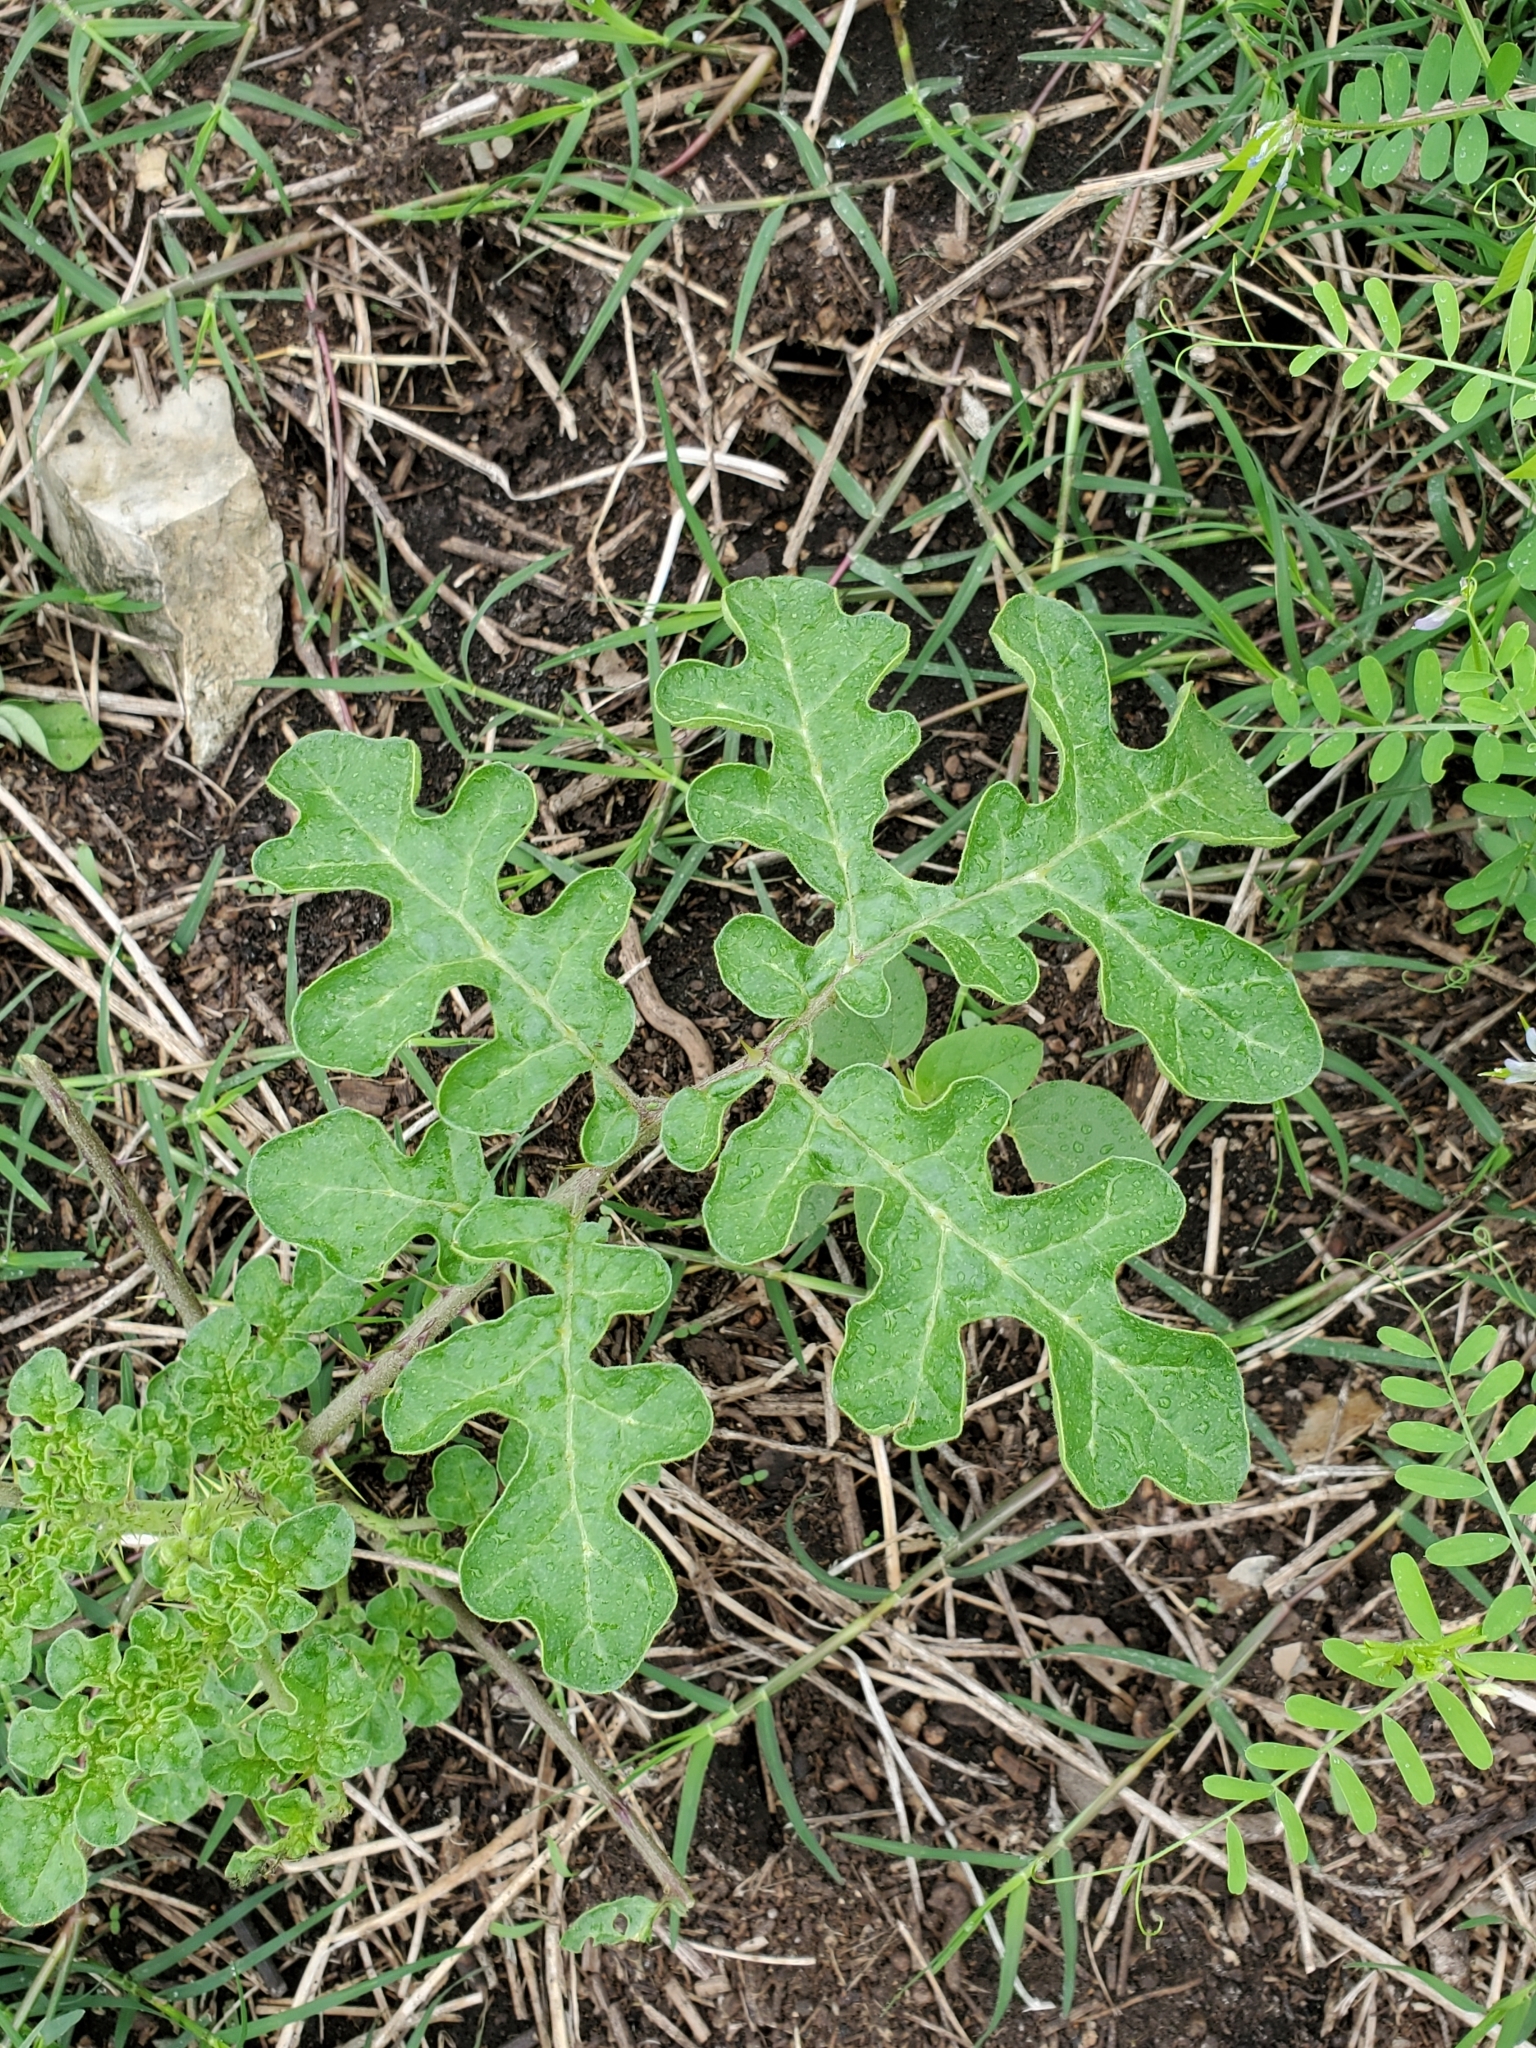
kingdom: Plantae
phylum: Tracheophyta
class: Magnoliopsida
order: Solanales
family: Solanaceae
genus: Solanum
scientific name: Solanum angustifolium
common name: Buffalobur nightshade
